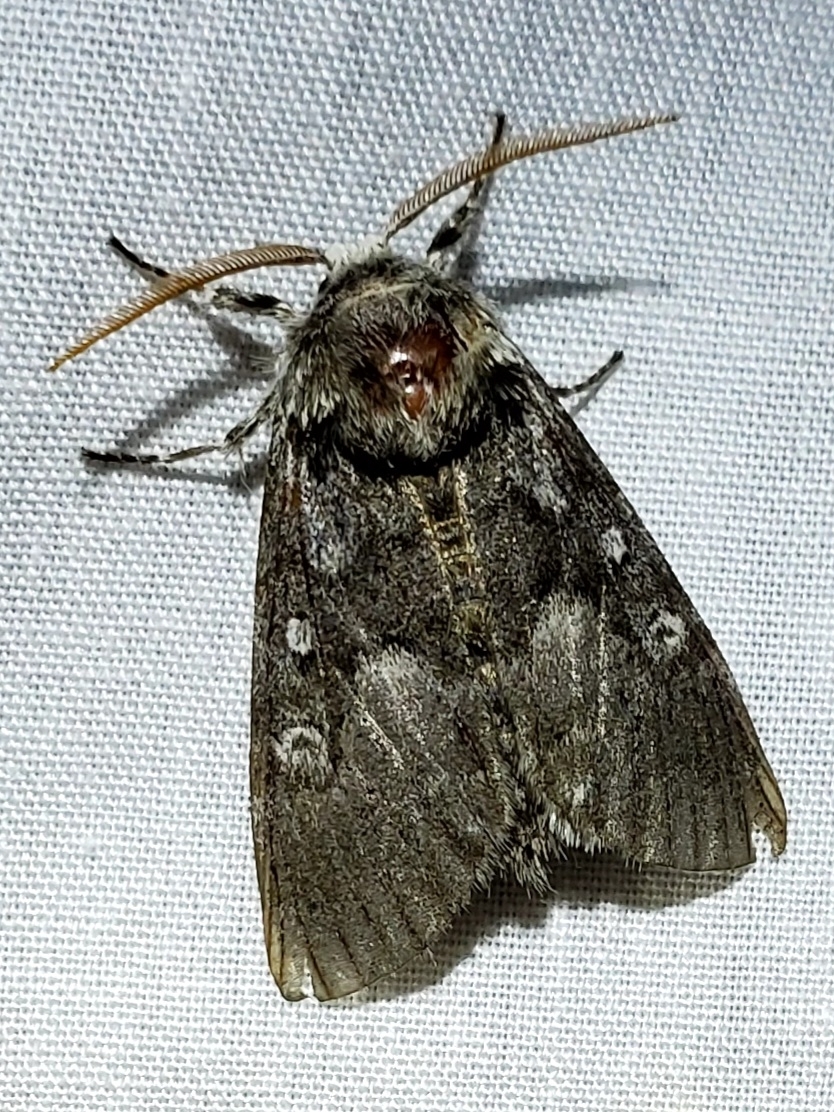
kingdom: Animalia
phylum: Arthropoda
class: Insecta
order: Lepidoptera
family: Noctuidae
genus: Colocasia
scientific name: Colocasia propinquilinea
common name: Close-banded demas
